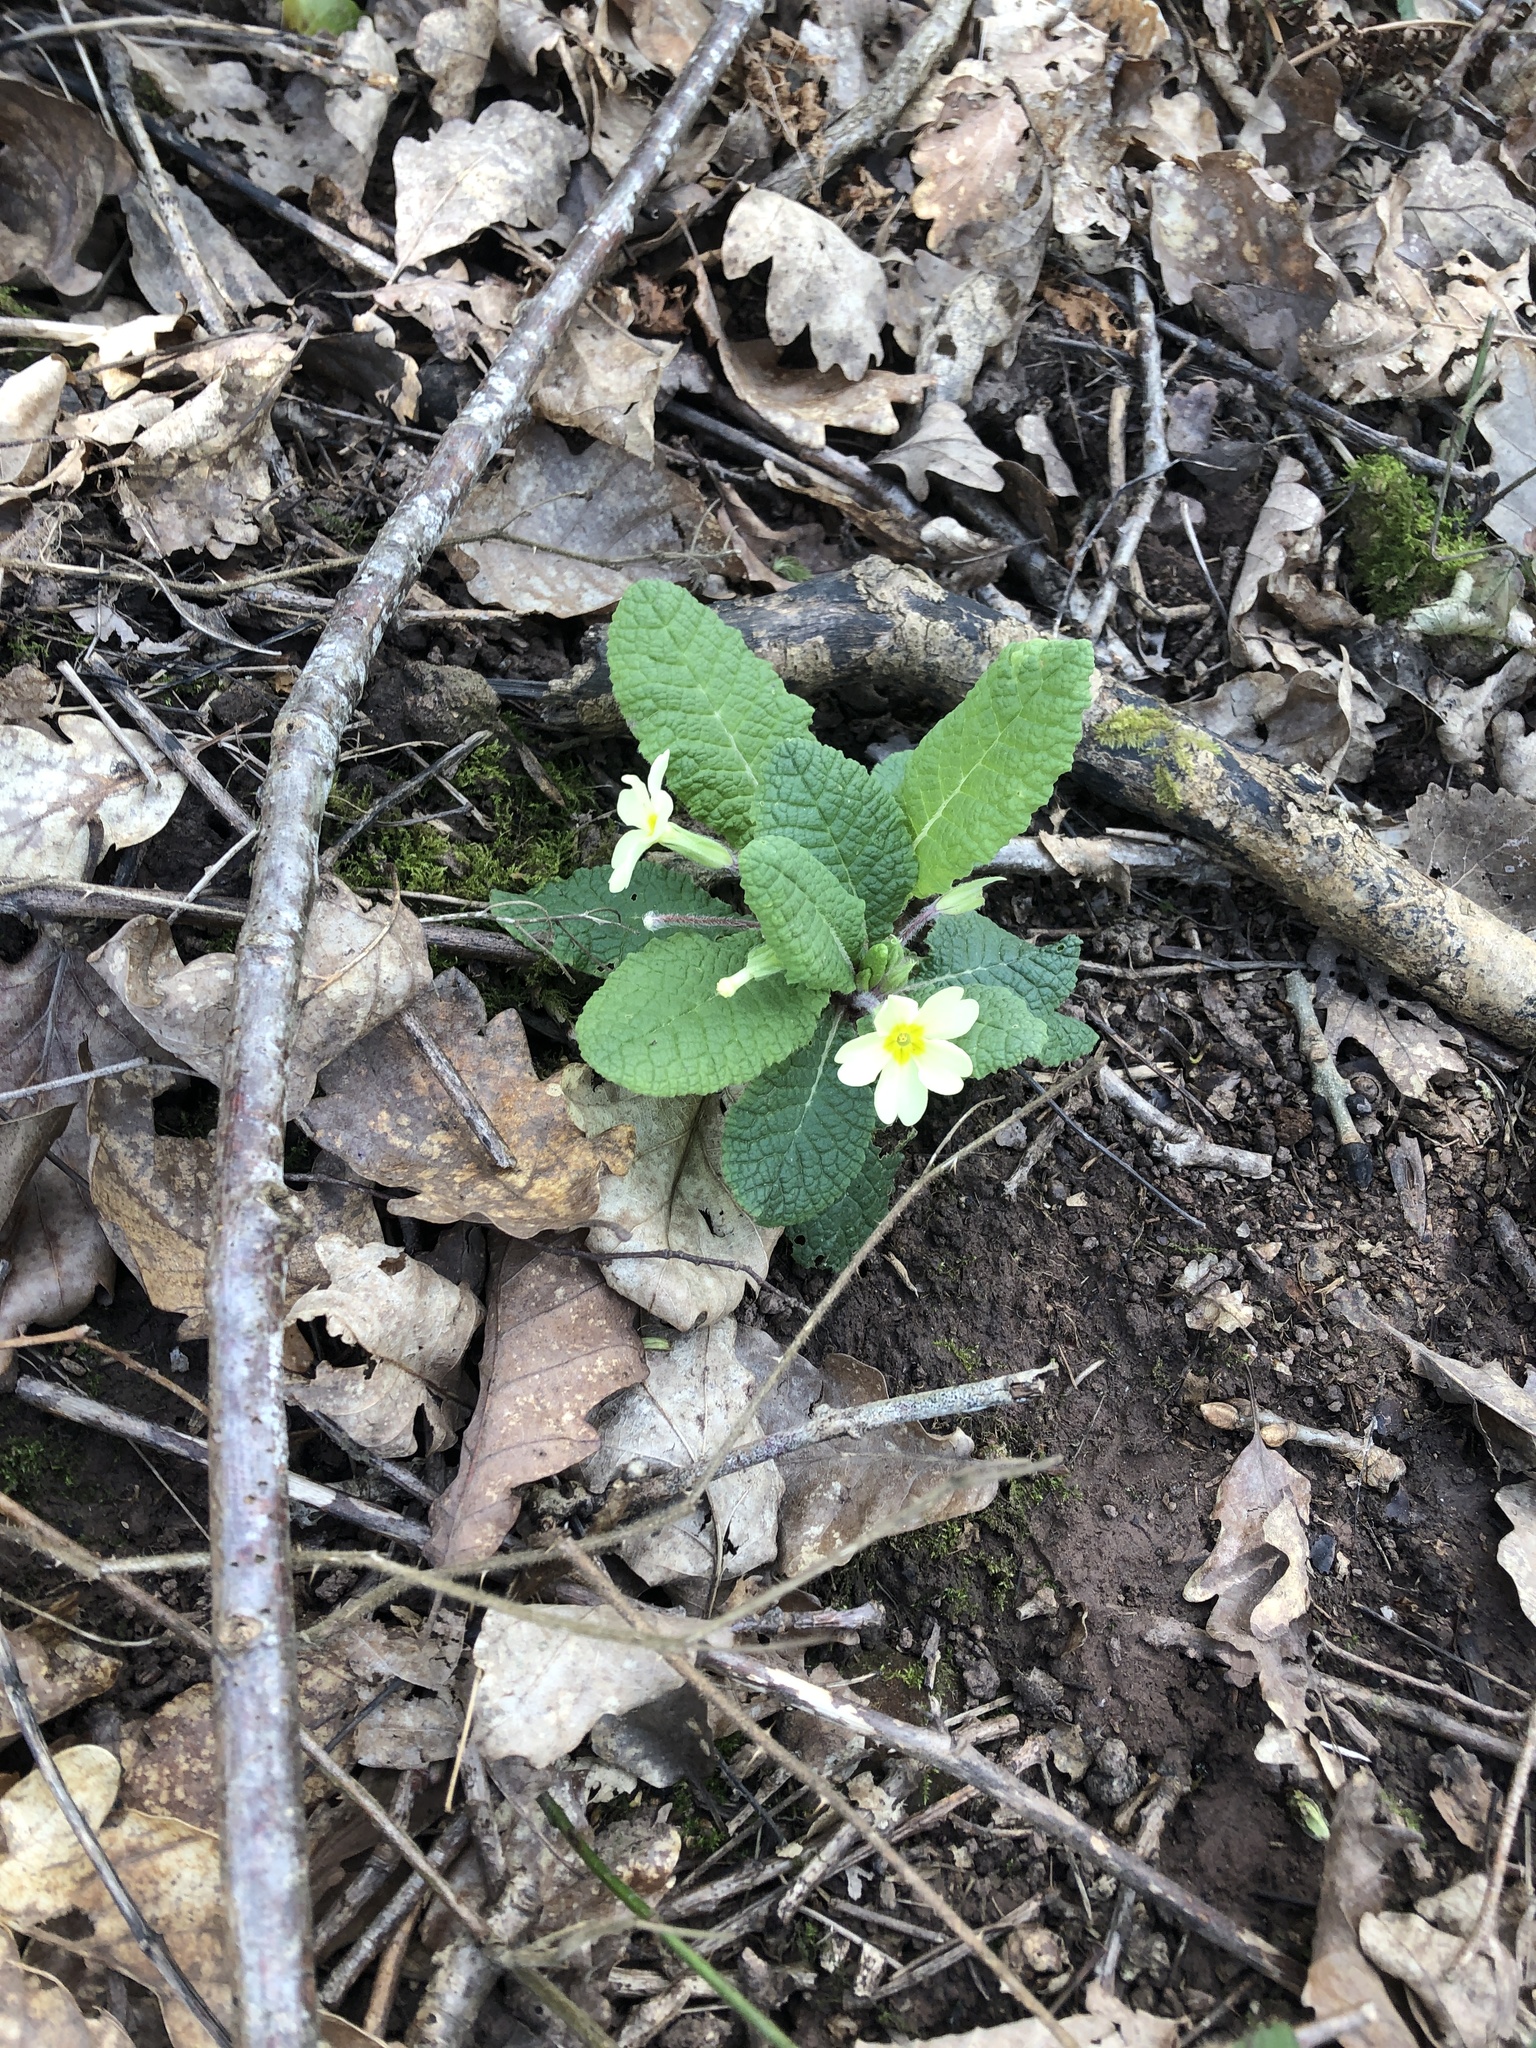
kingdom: Plantae
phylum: Tracheophyta
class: Magnoliopsida
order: Ericales
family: Primulaceae
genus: Primula
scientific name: Primula vulgaris
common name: Primrose
